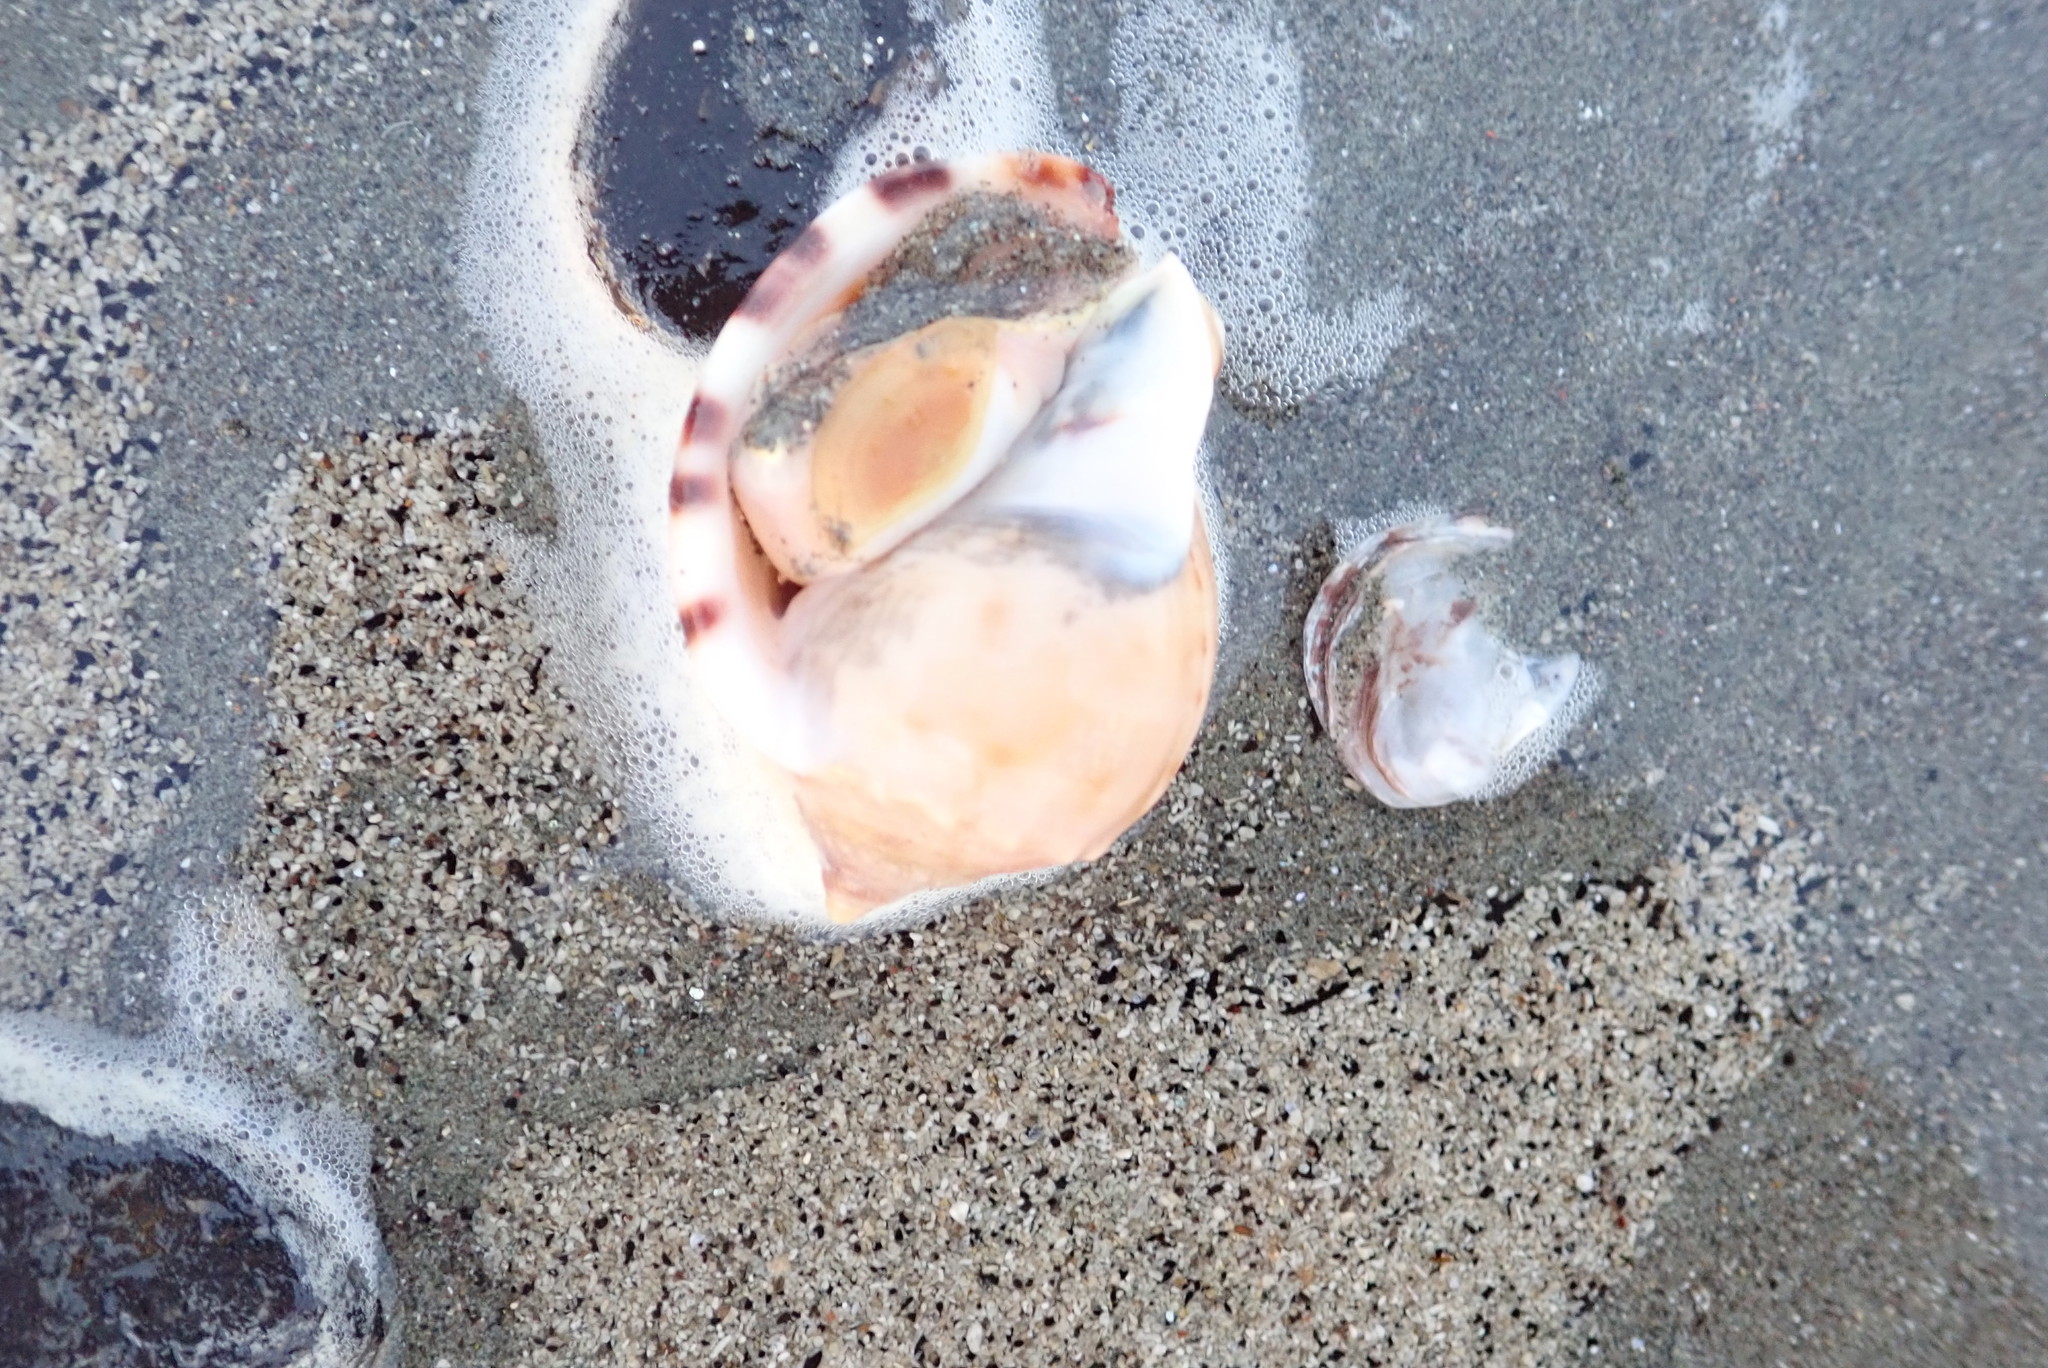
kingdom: Animalia
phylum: Mollusca
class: Gastropoda
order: Littorinimorpha
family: Cassidae
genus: Semicassis
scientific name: Semicassis pyrum
